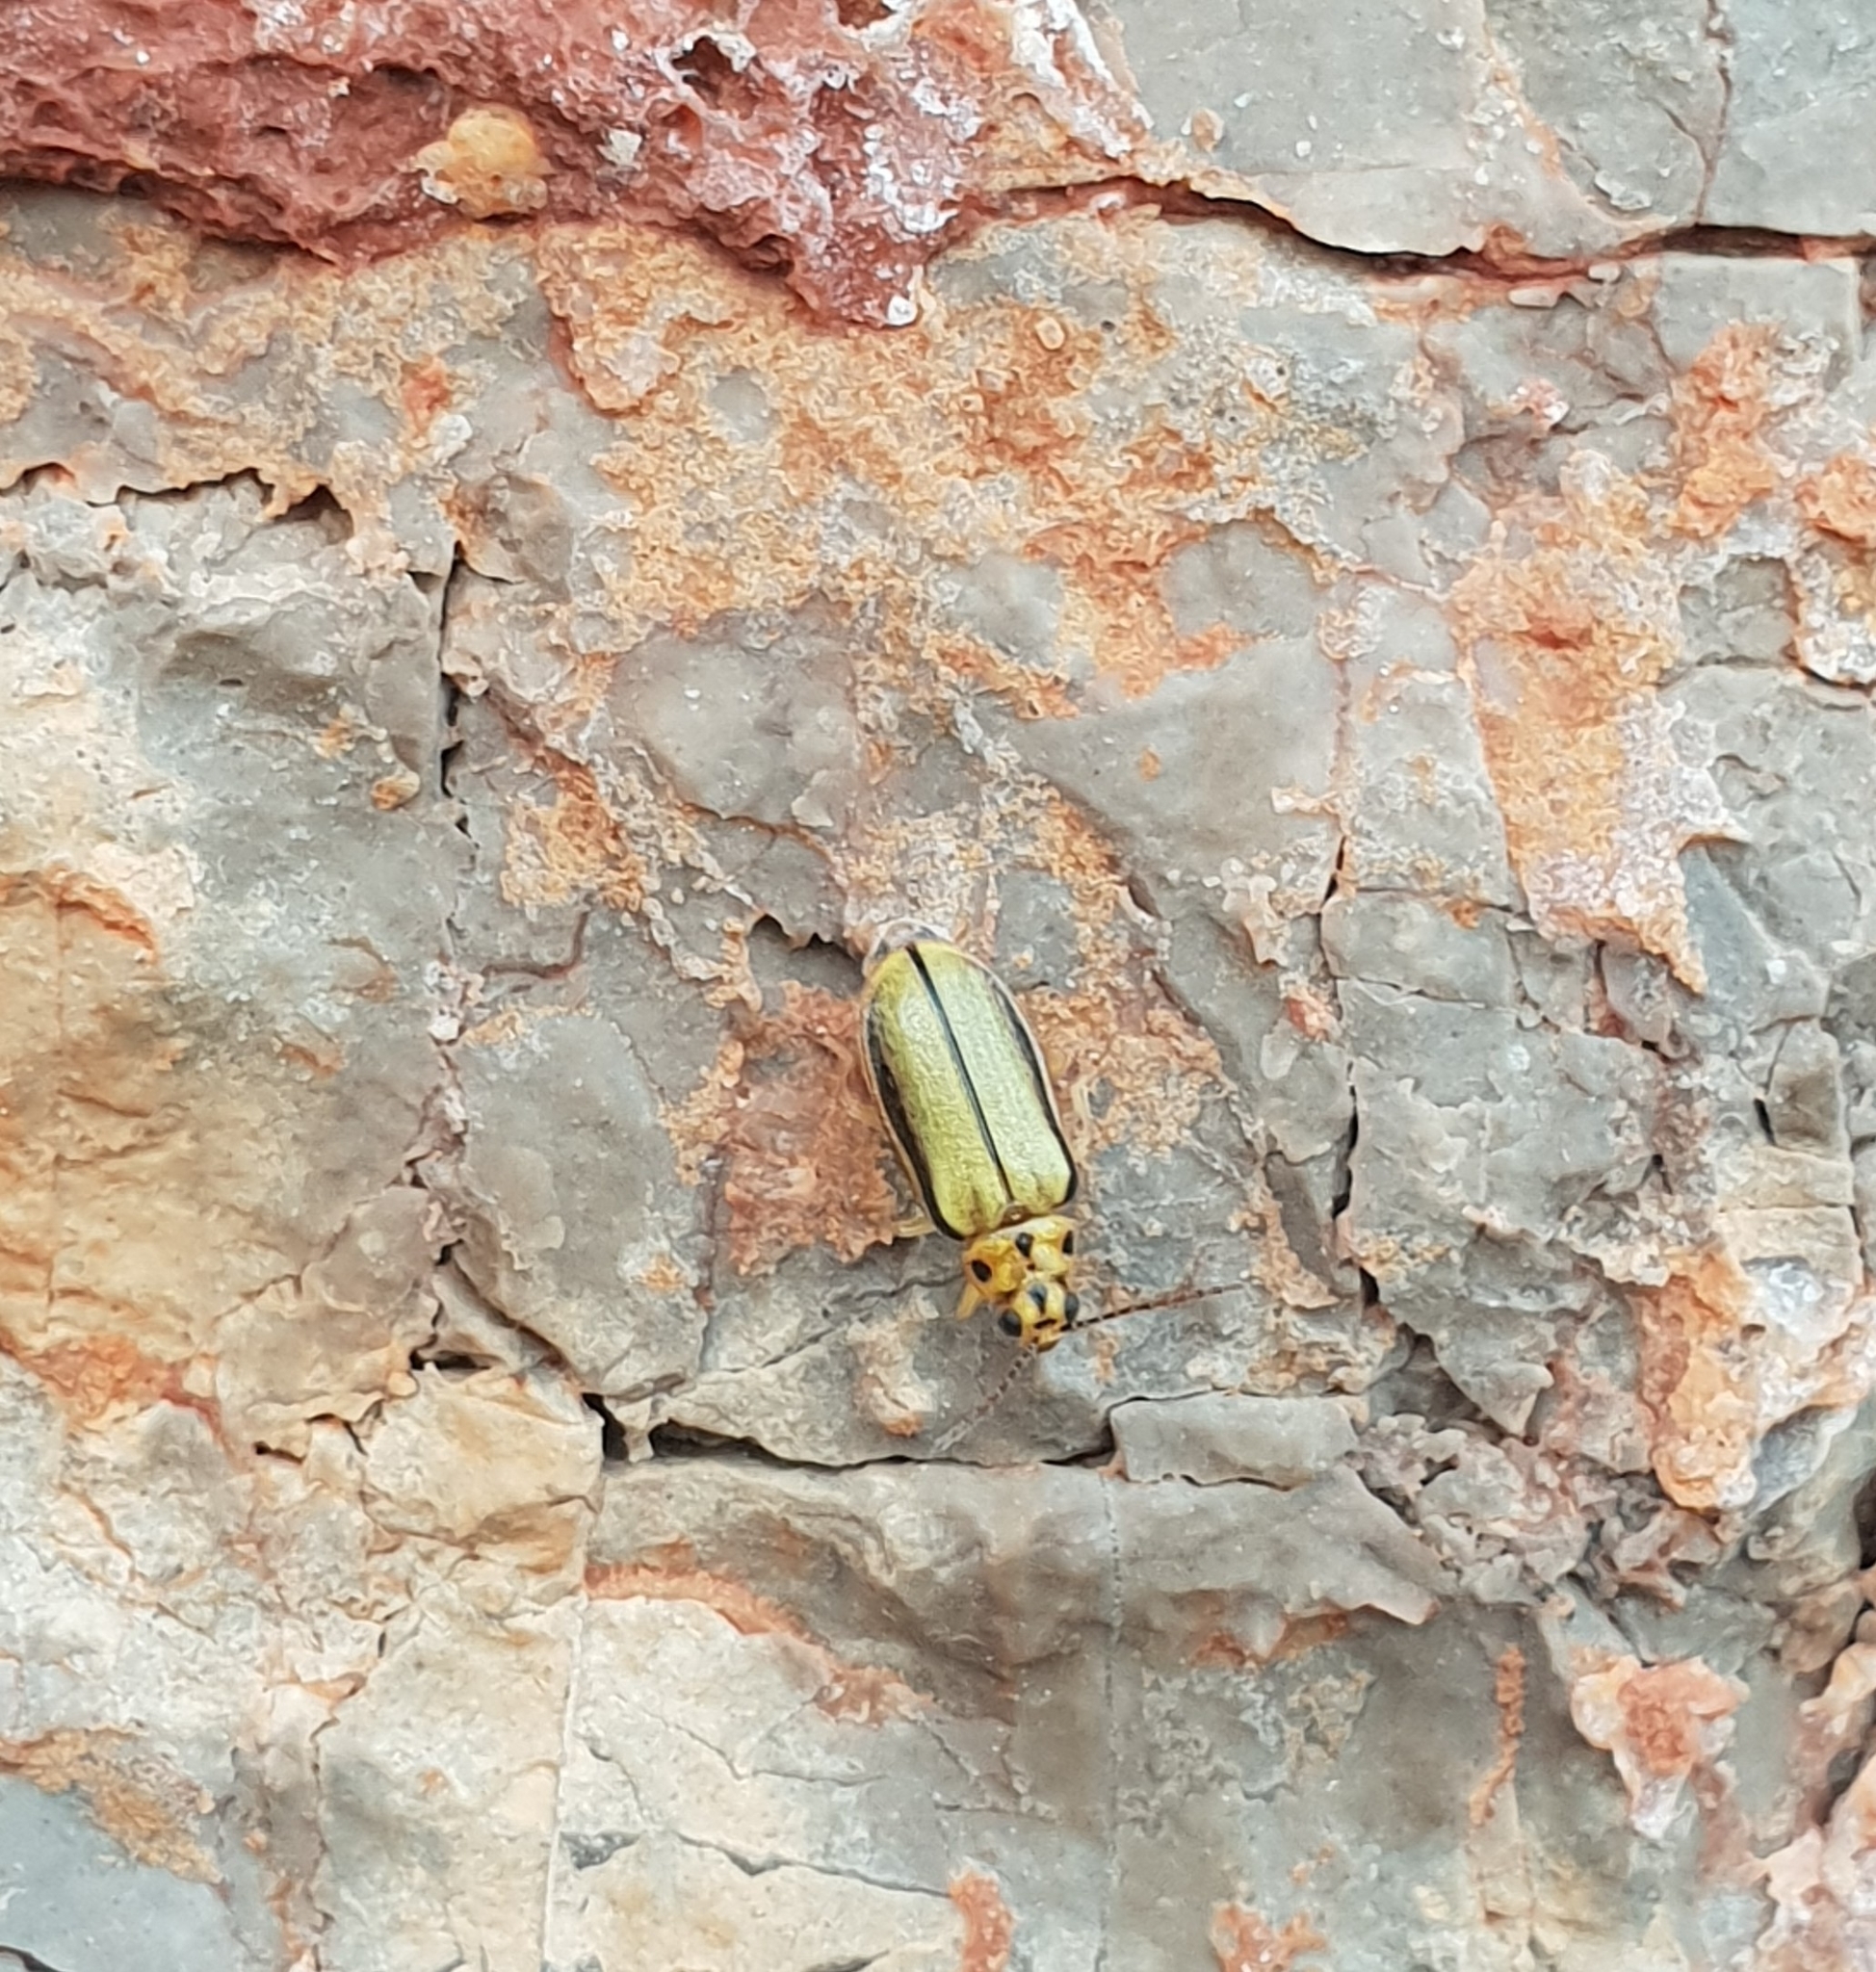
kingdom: Animalia
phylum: Arthropoda
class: Insecta
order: Coleoptera
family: Chrysomelidae
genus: Xanthogaleruca
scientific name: Xanthogaleruca luteola
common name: Elm leaf beetle
